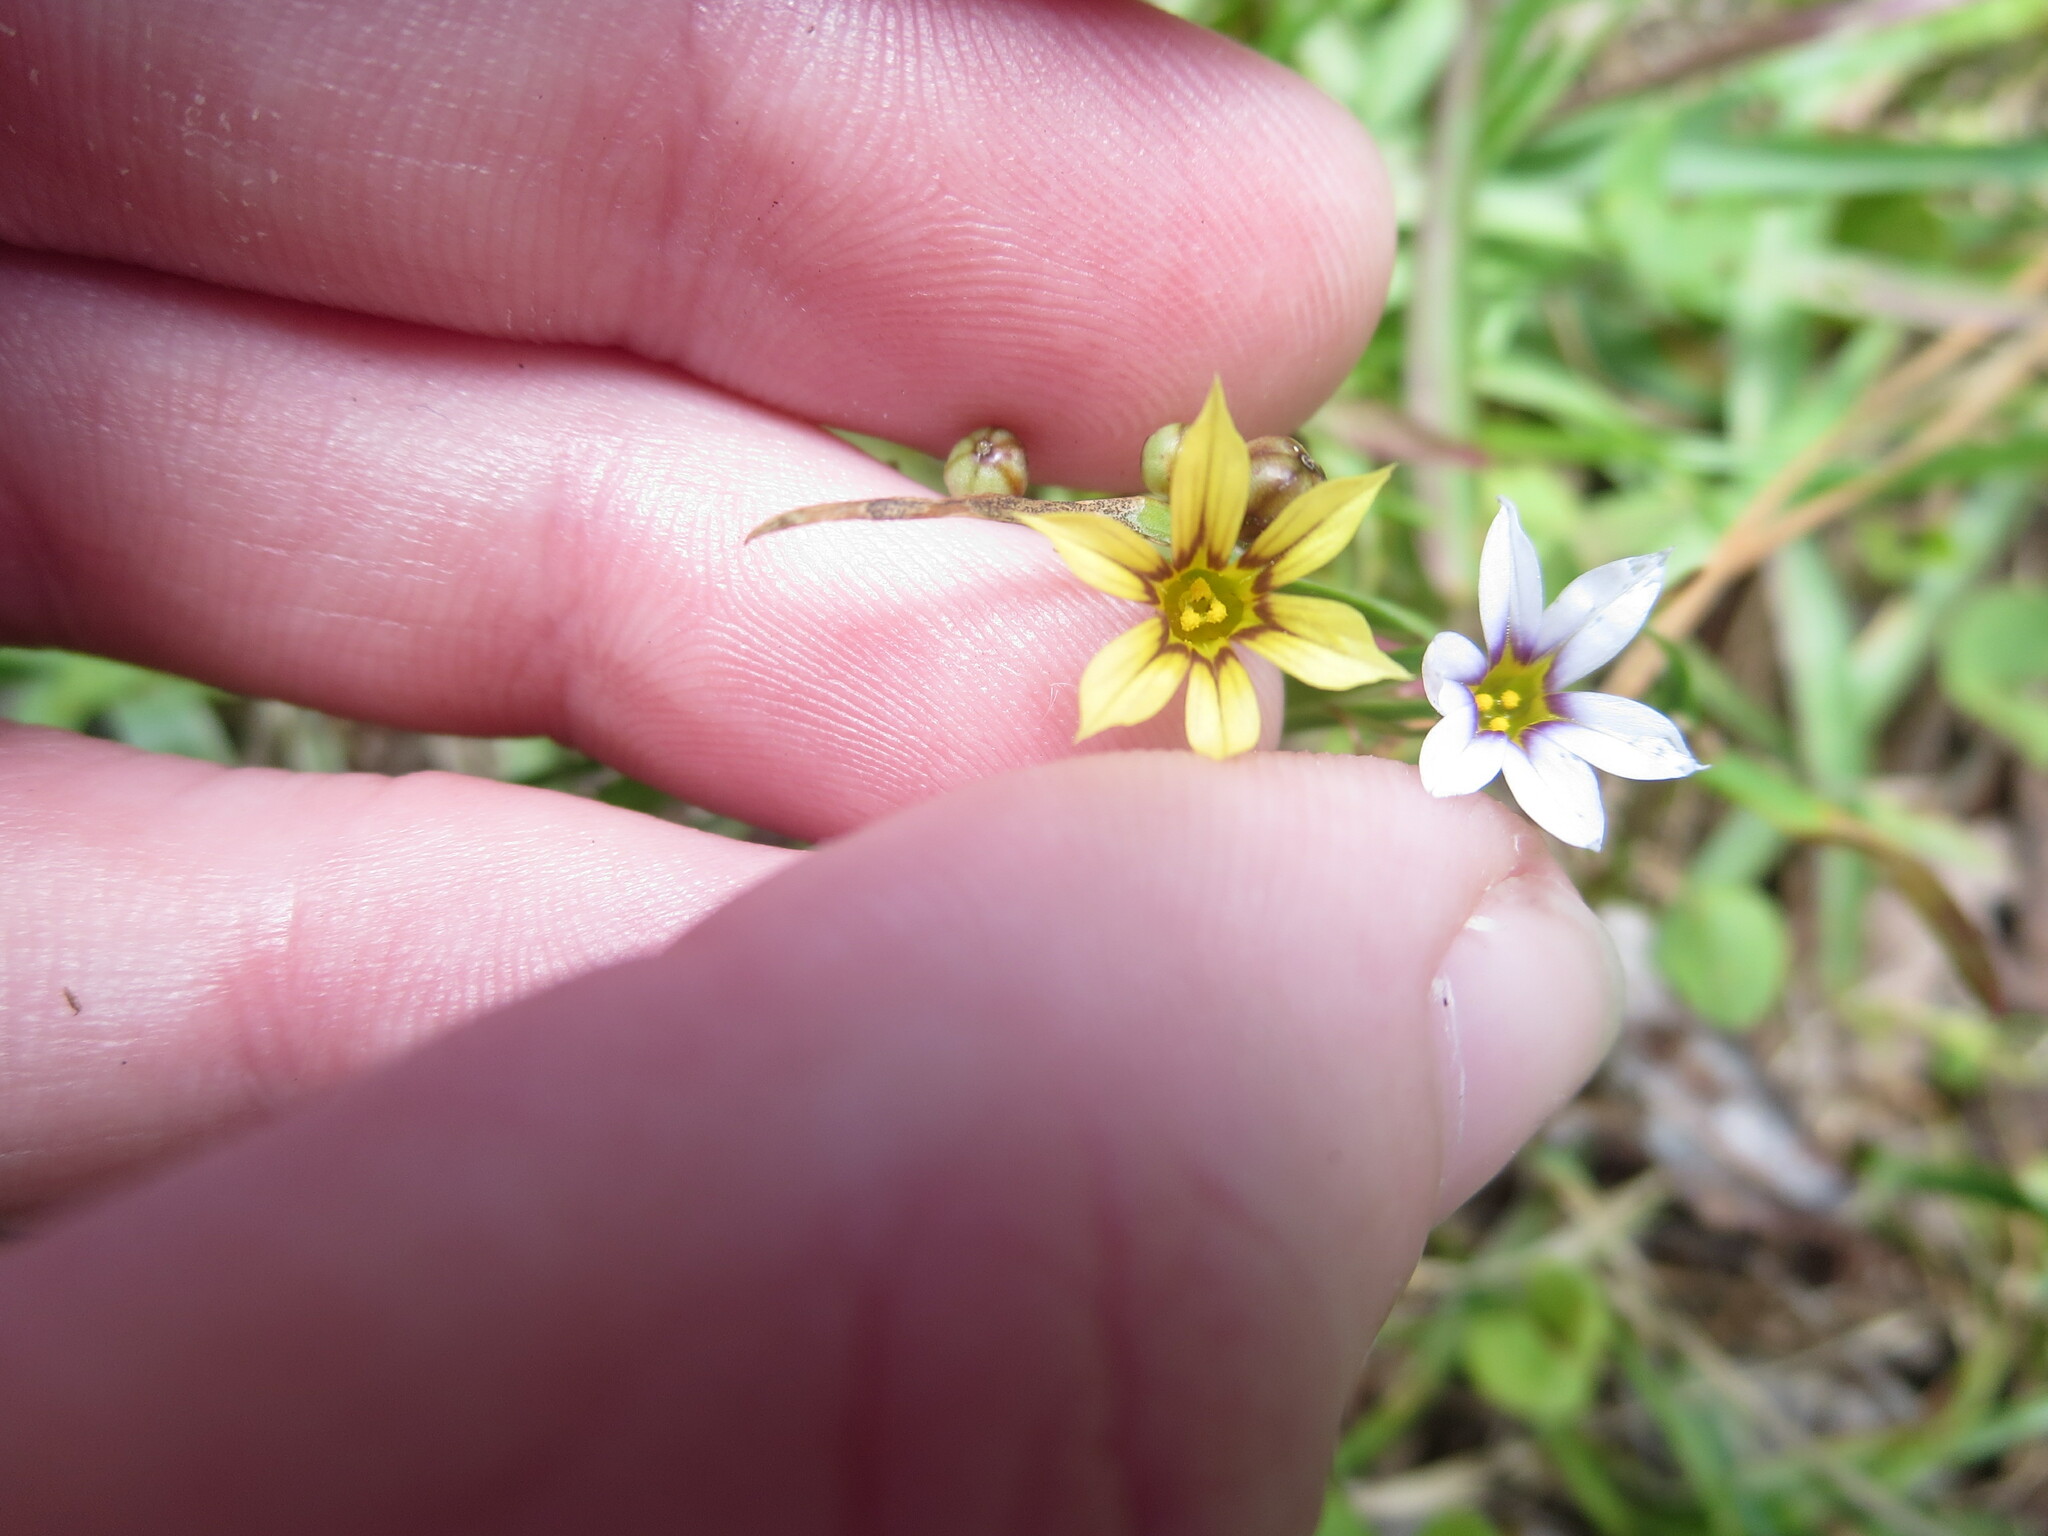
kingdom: Plantae
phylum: Tracheophyta
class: Liliopsida
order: Asparagales
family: Iridaceae
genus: Sisyrinchium
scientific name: Sisyrinchium micranthum
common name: Bermuda pigroot
